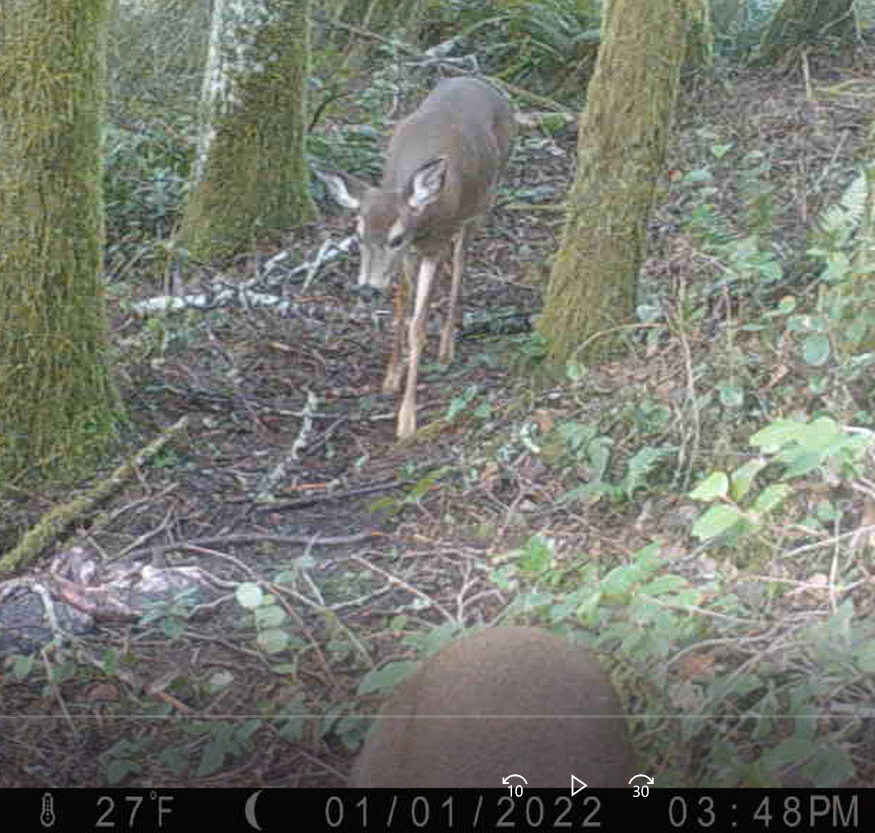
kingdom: Animalia
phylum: Chordata
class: Mammalia
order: Artiodactyla
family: Cervidae
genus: Odocoileus
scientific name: Odocoileus hemionus
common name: Mule deer
